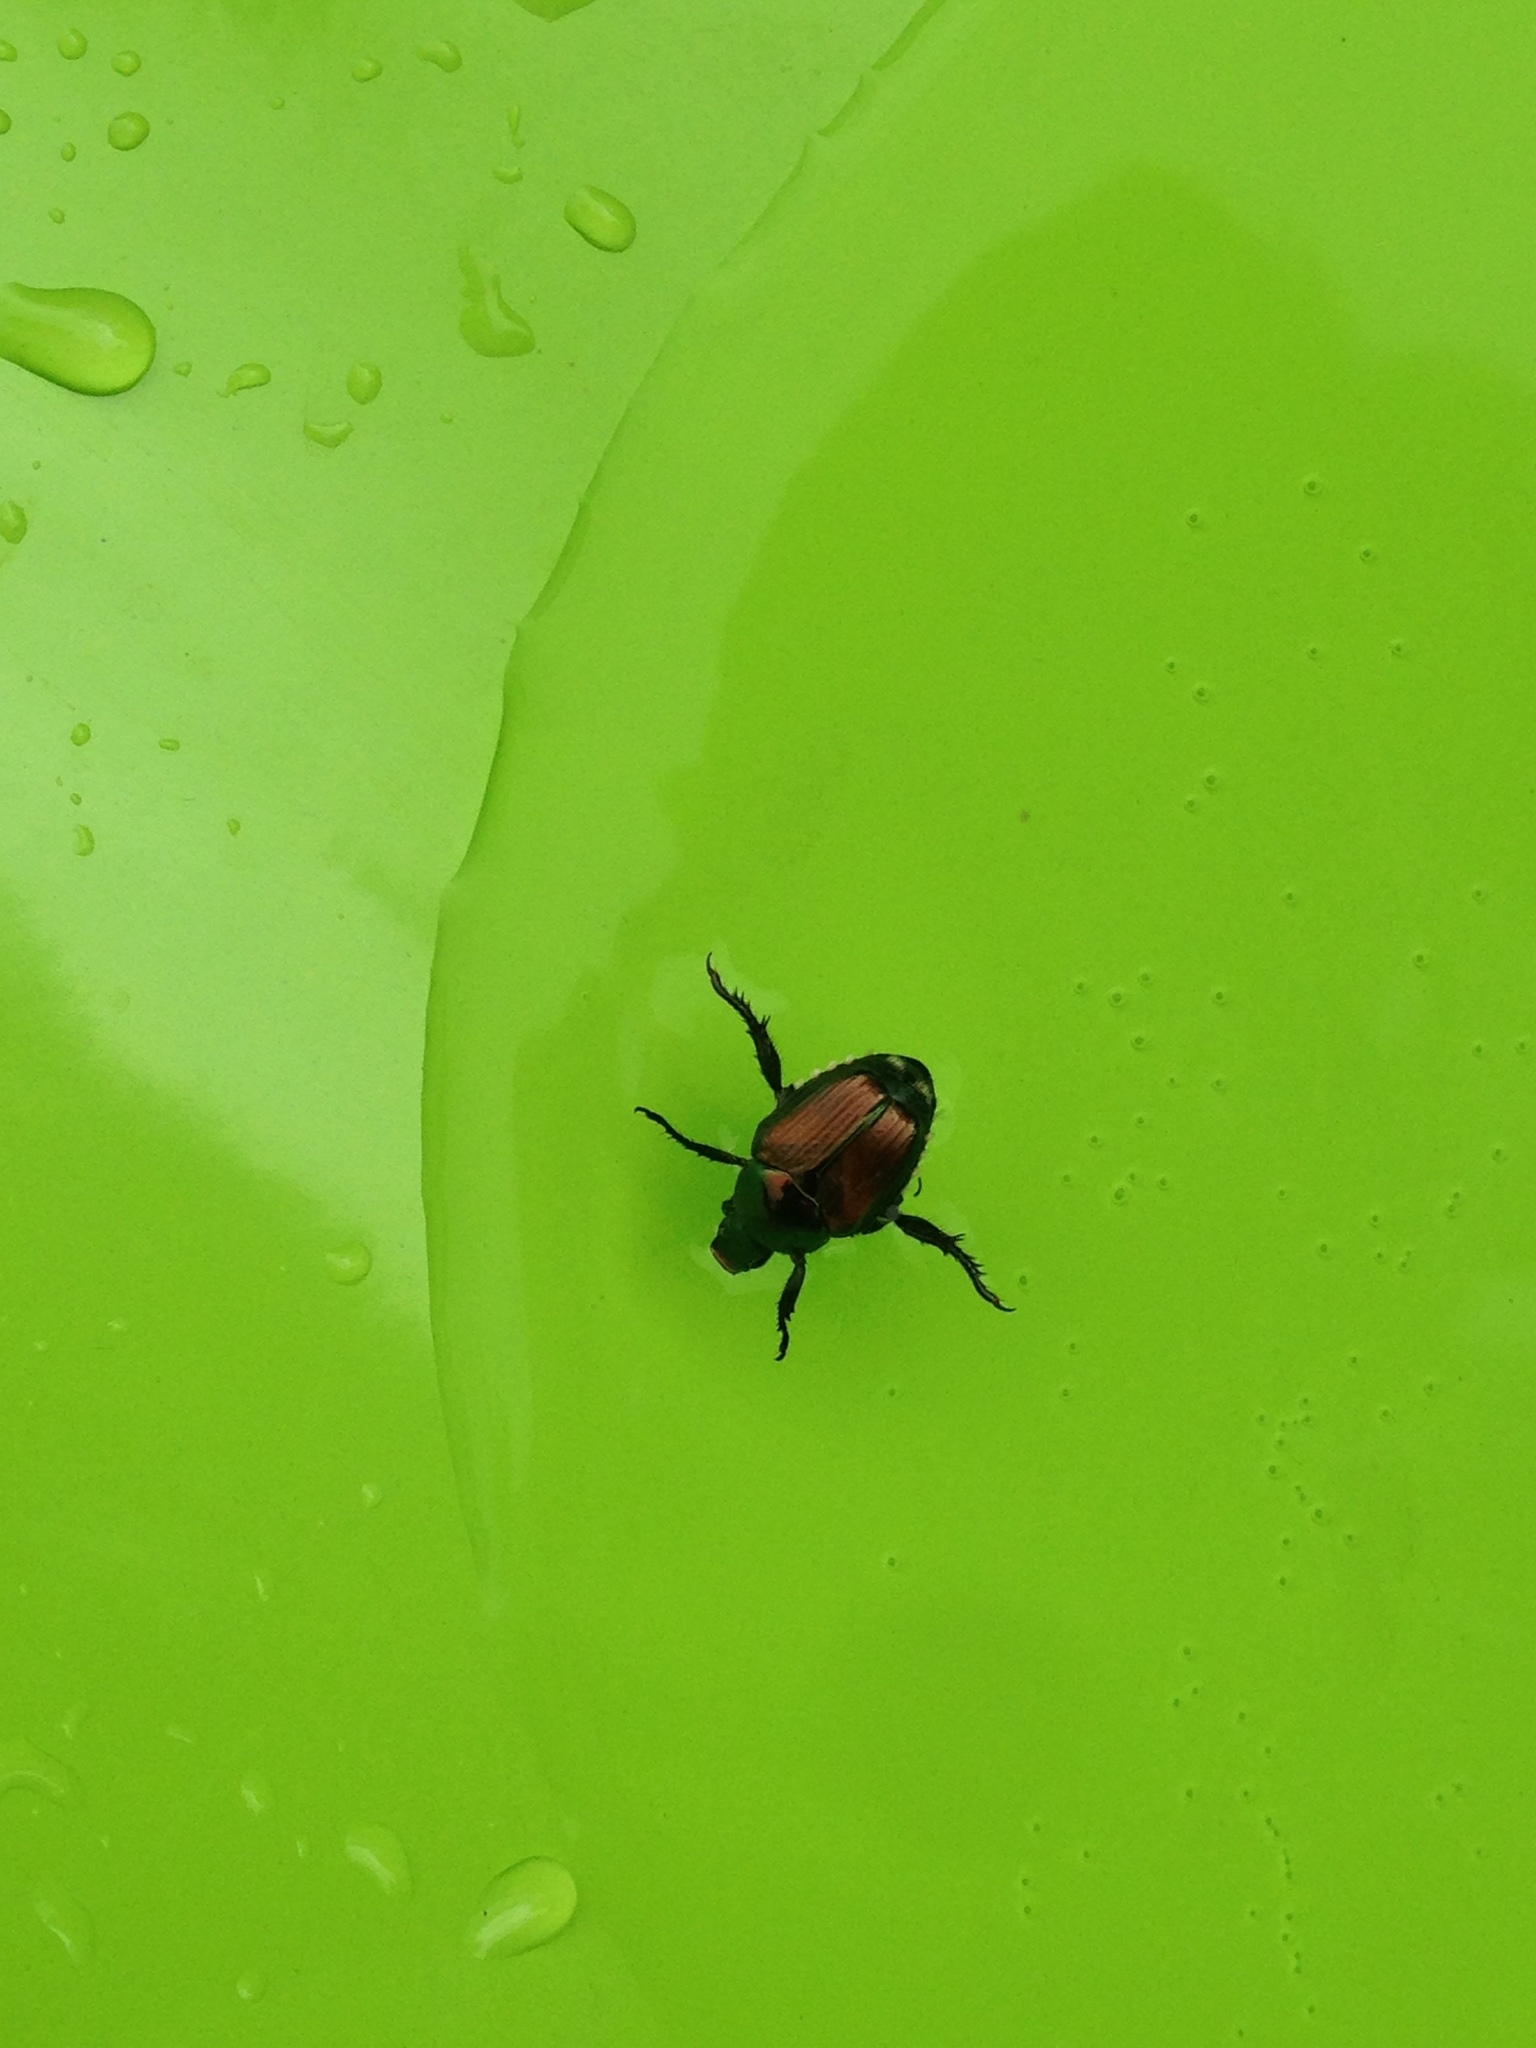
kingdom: Animalia
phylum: Arthropoda
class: Insecta
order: Coleoptera
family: Scarabaeidae
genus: Popillia
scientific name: Popillia japonica
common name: Japanese beetle
